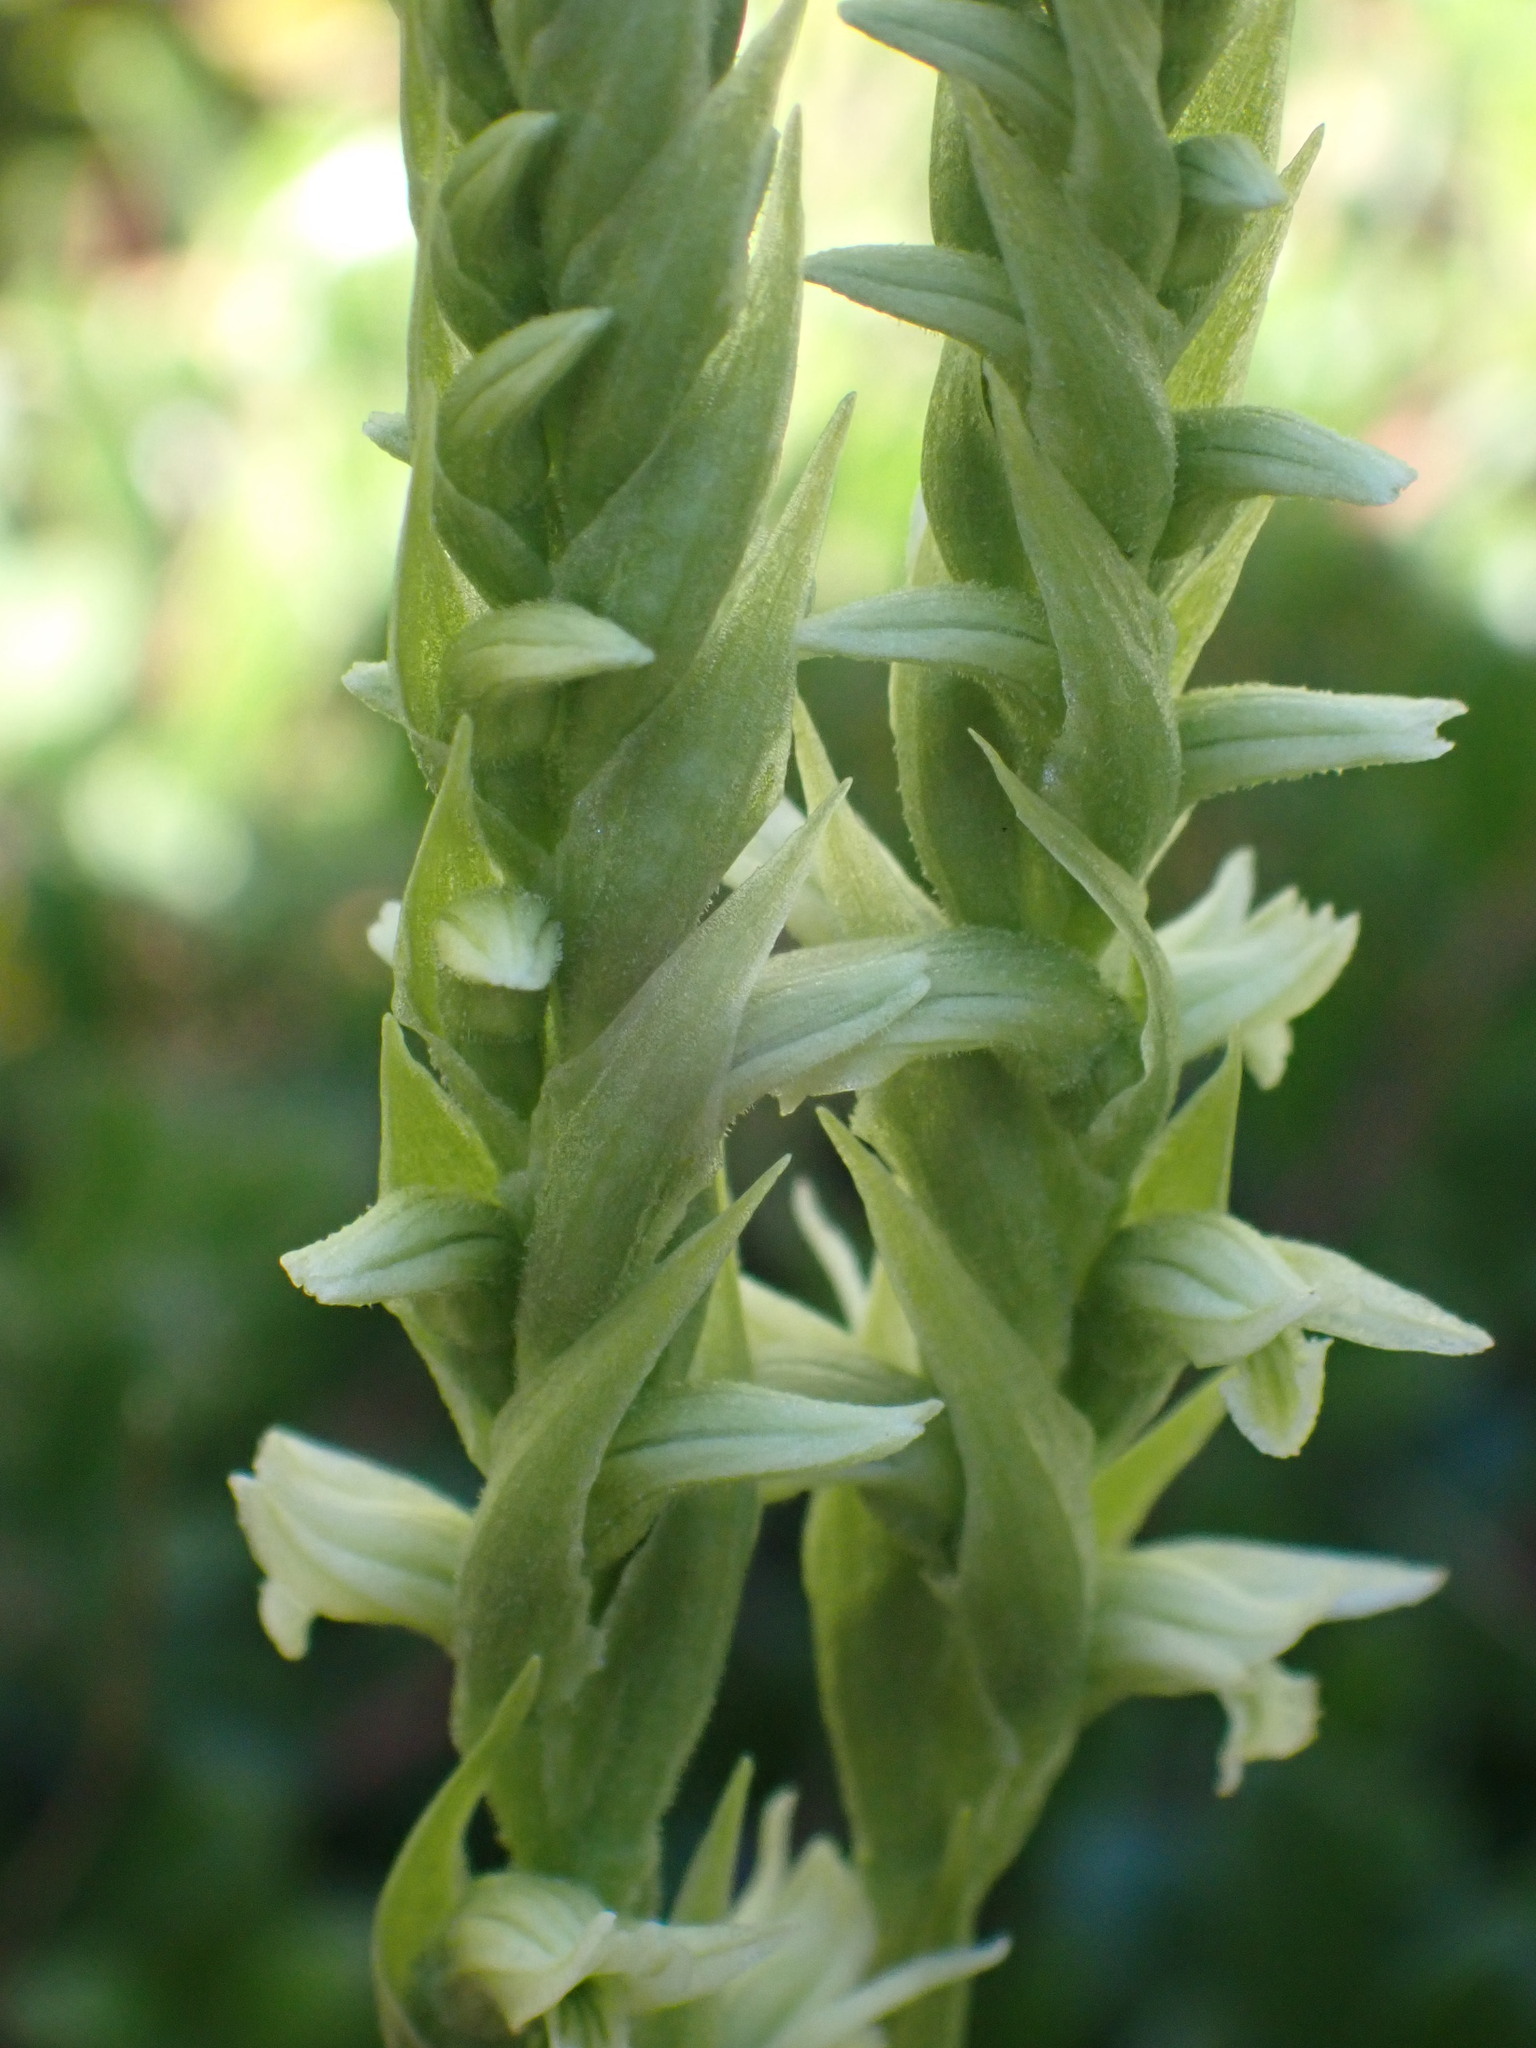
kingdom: Plantae
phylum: Tracheophyta
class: Liliopsida
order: Asparagales
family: Orchidaceae
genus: Spiranthes
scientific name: Spiranthes romanzoffiana
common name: Irish lady's-tresses
